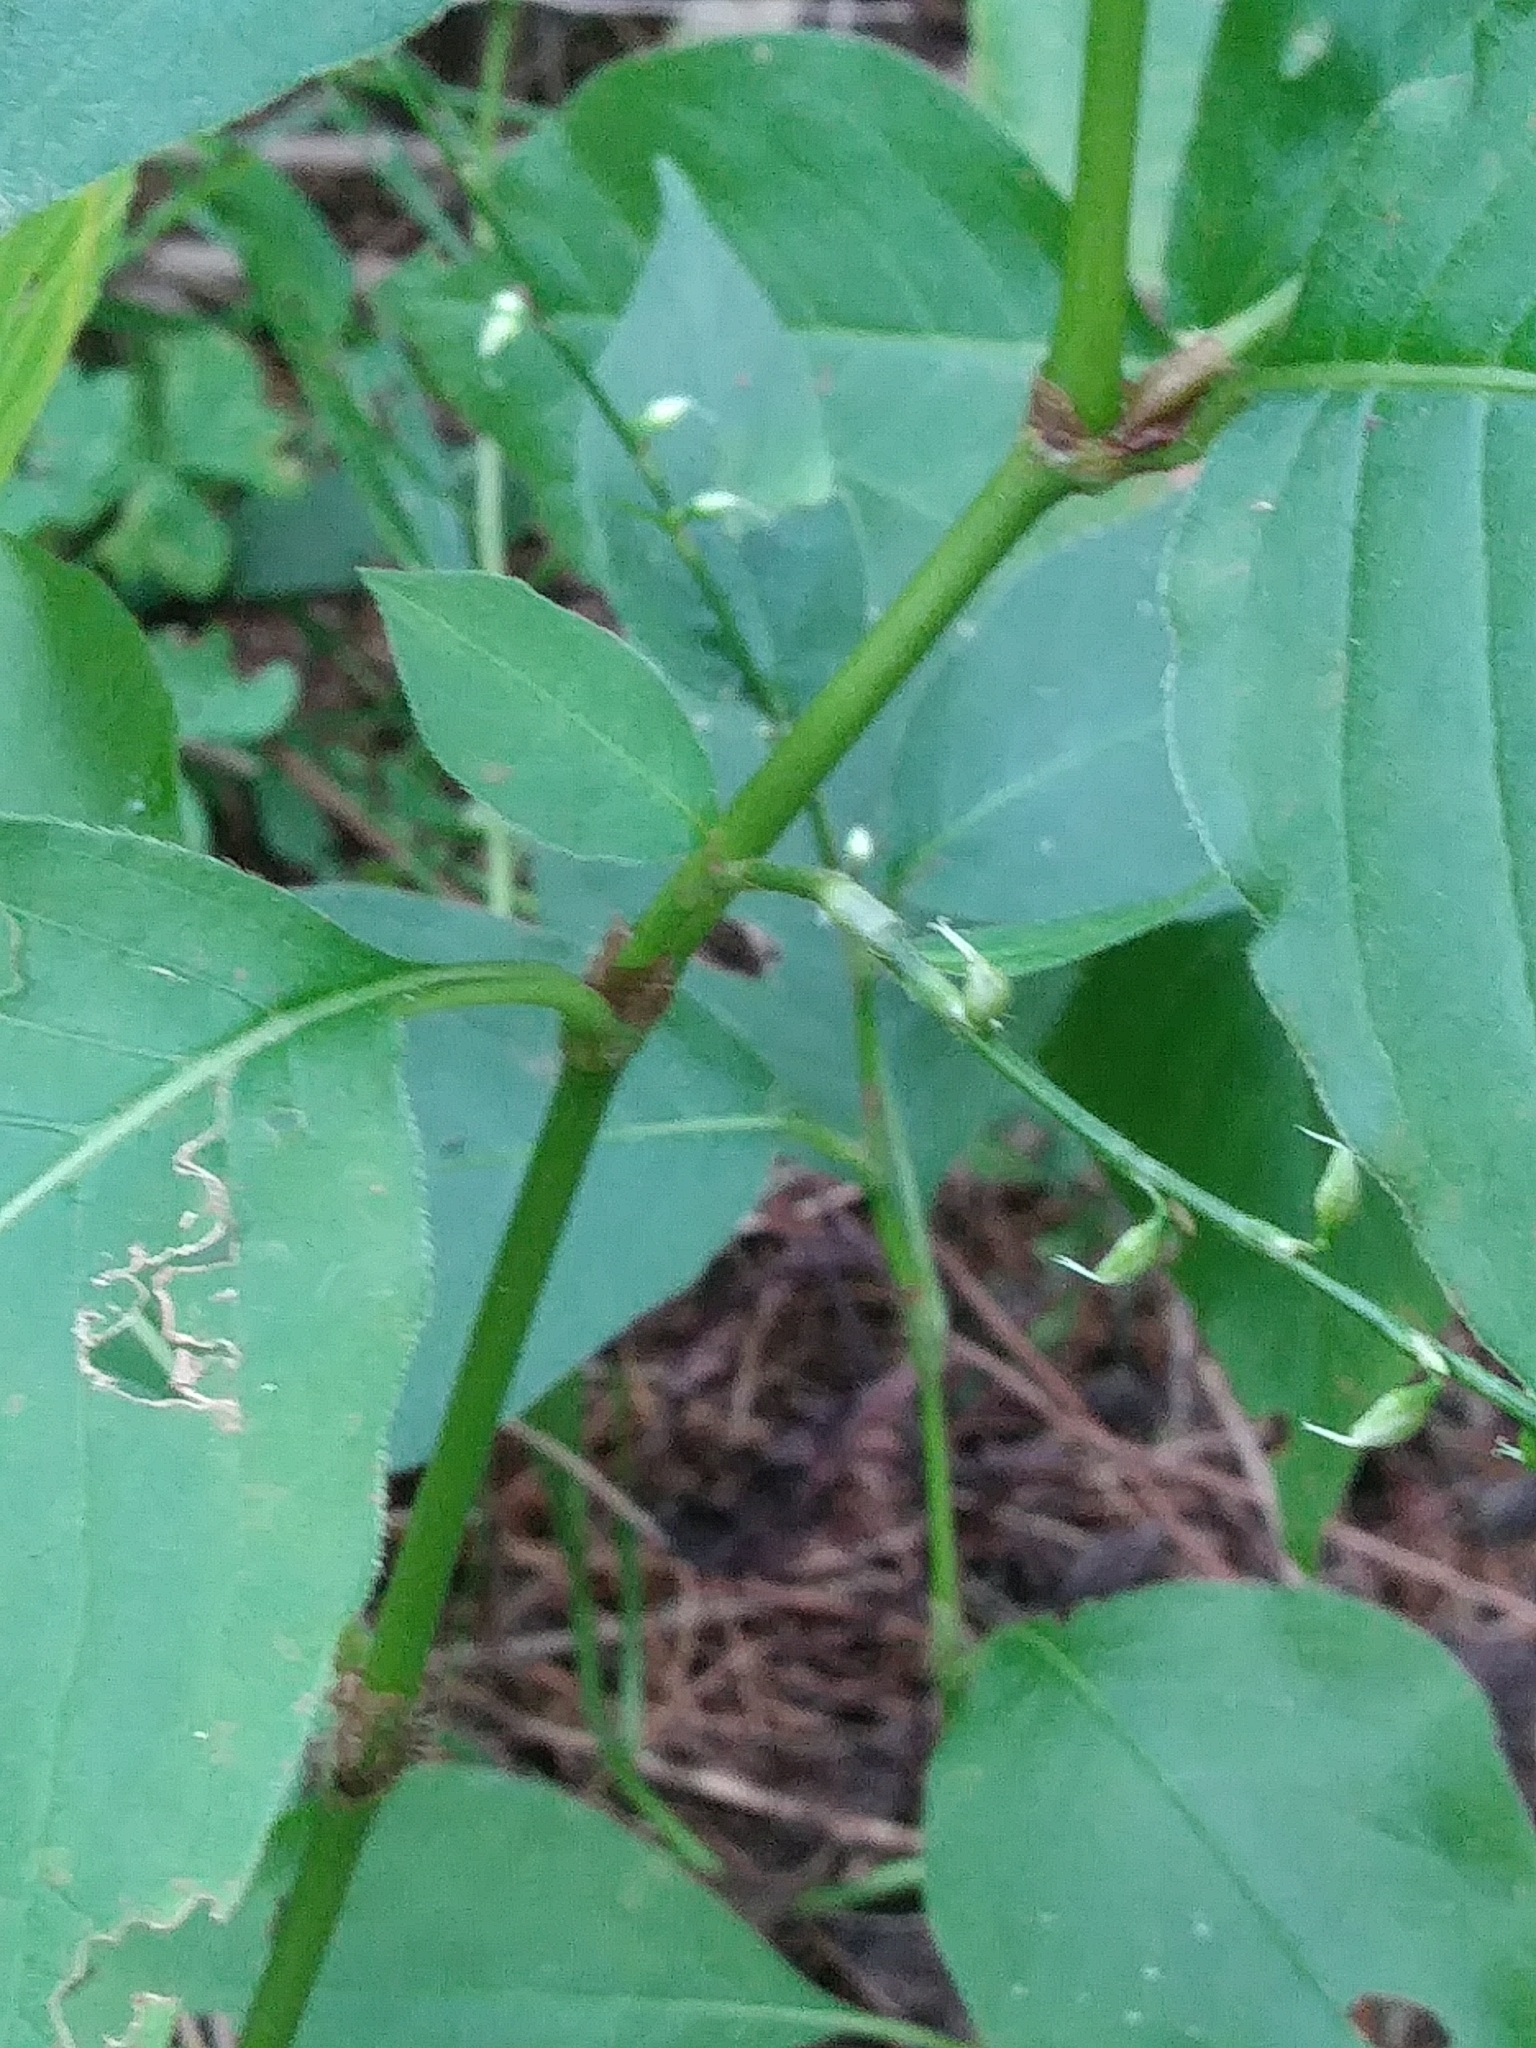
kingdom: Plantae
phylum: Tracheophyta
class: Magnoliopsida
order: Caryophyllales
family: Polygonaceae
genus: Persicaria
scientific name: Persicaria virginiana
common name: Jumpseed
